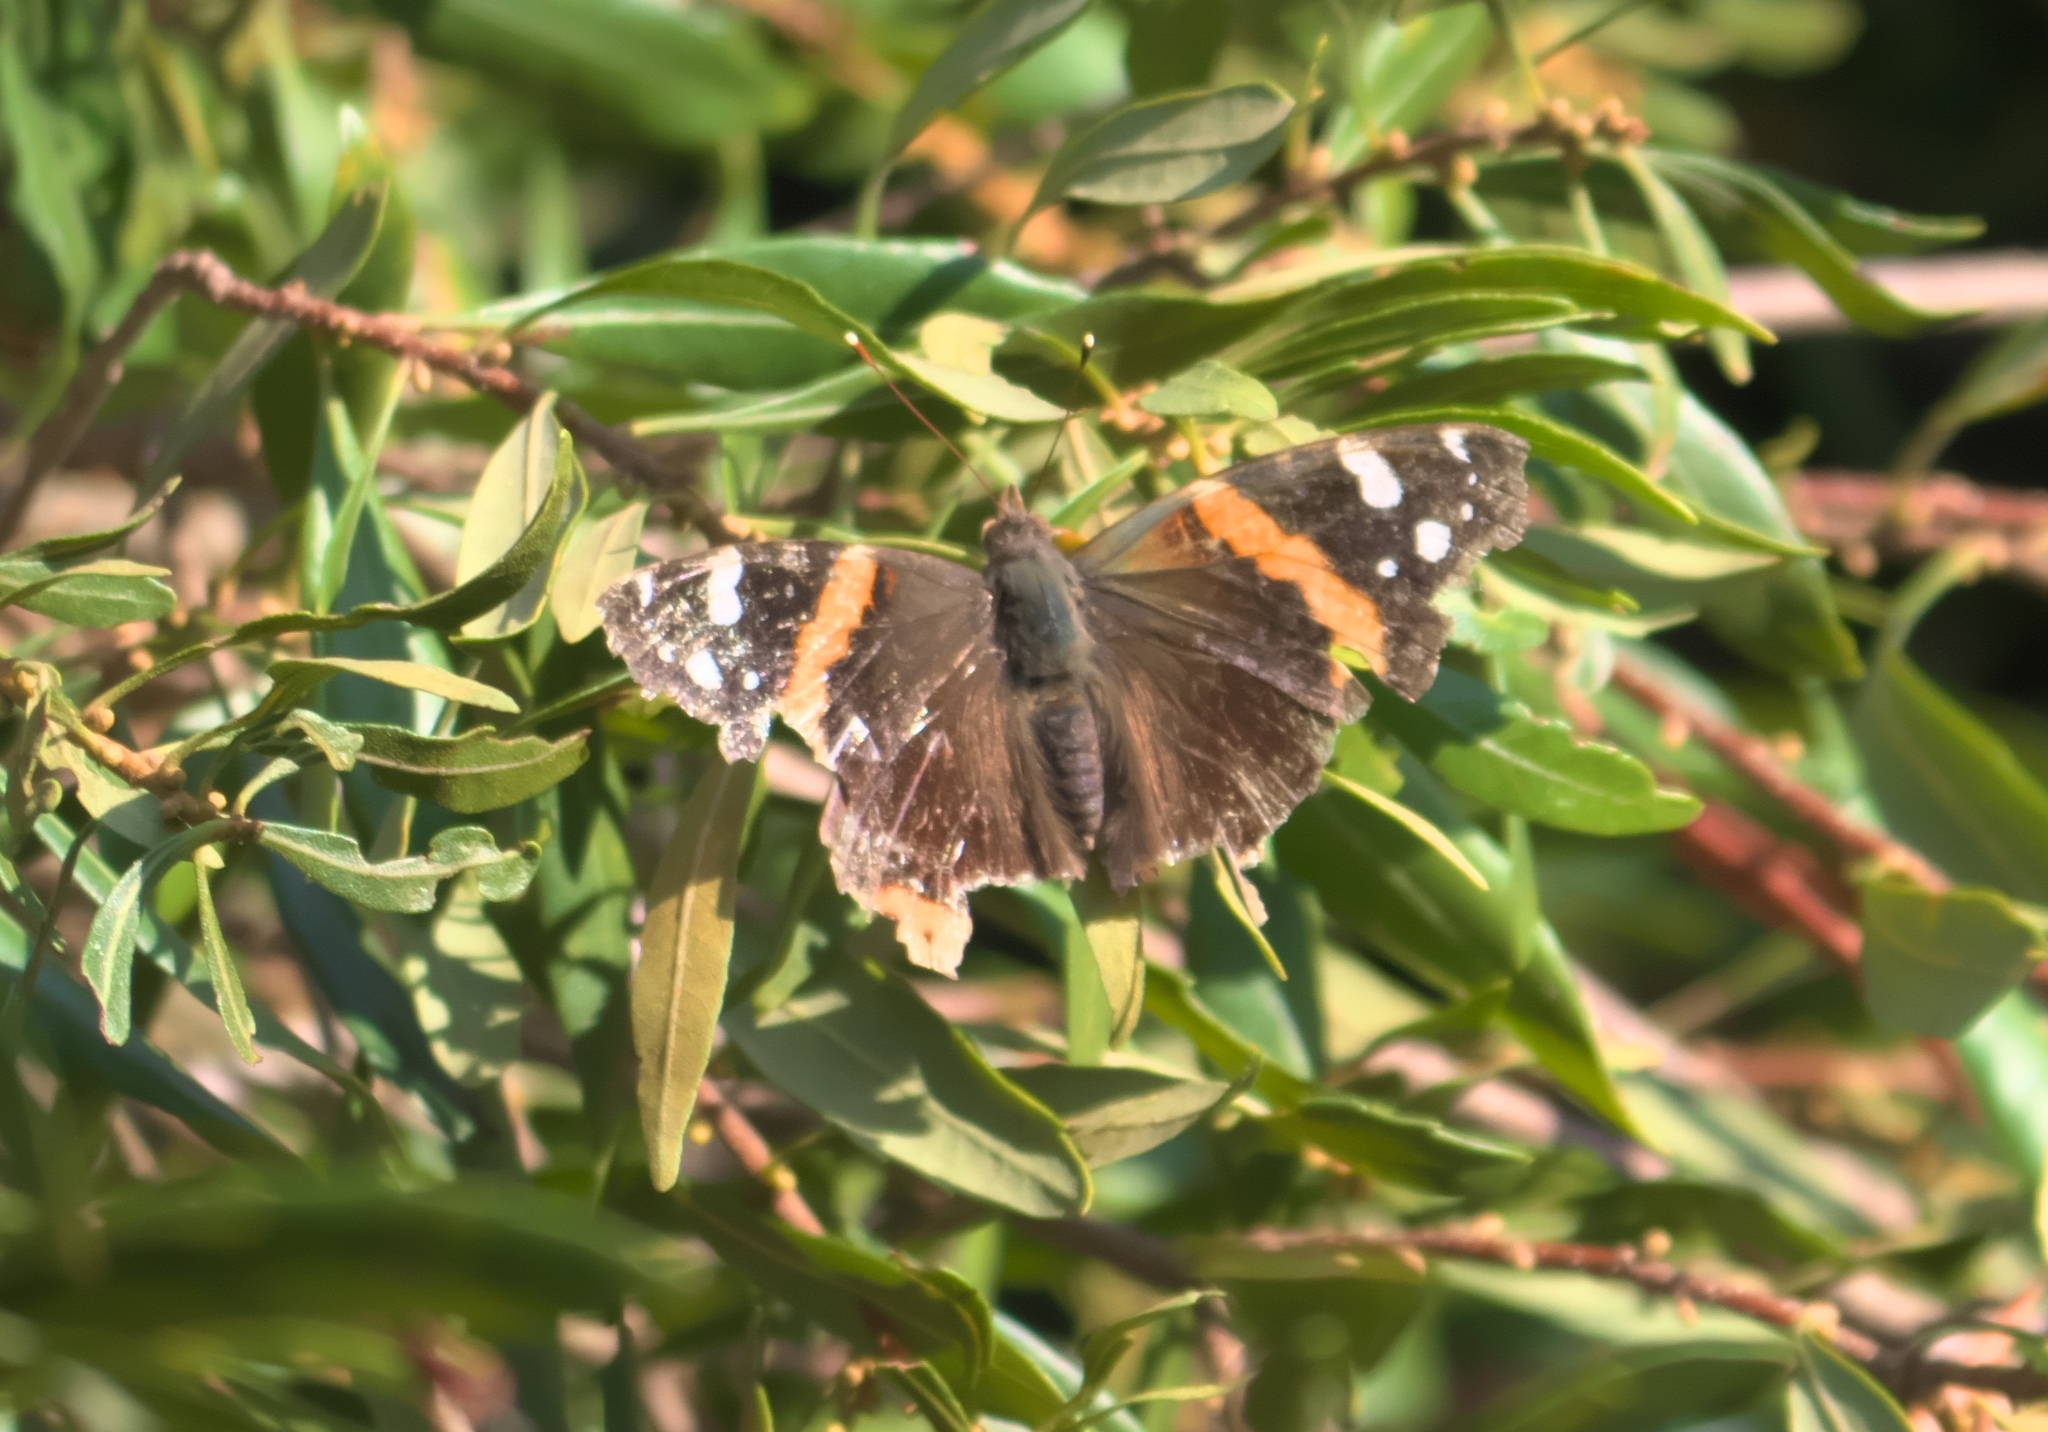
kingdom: Animalia
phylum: Arthropoda
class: Insecta
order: Lepidoptera
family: Nymphalidae
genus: Vanessa
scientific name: Vanessa atalanta
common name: Red admiral
